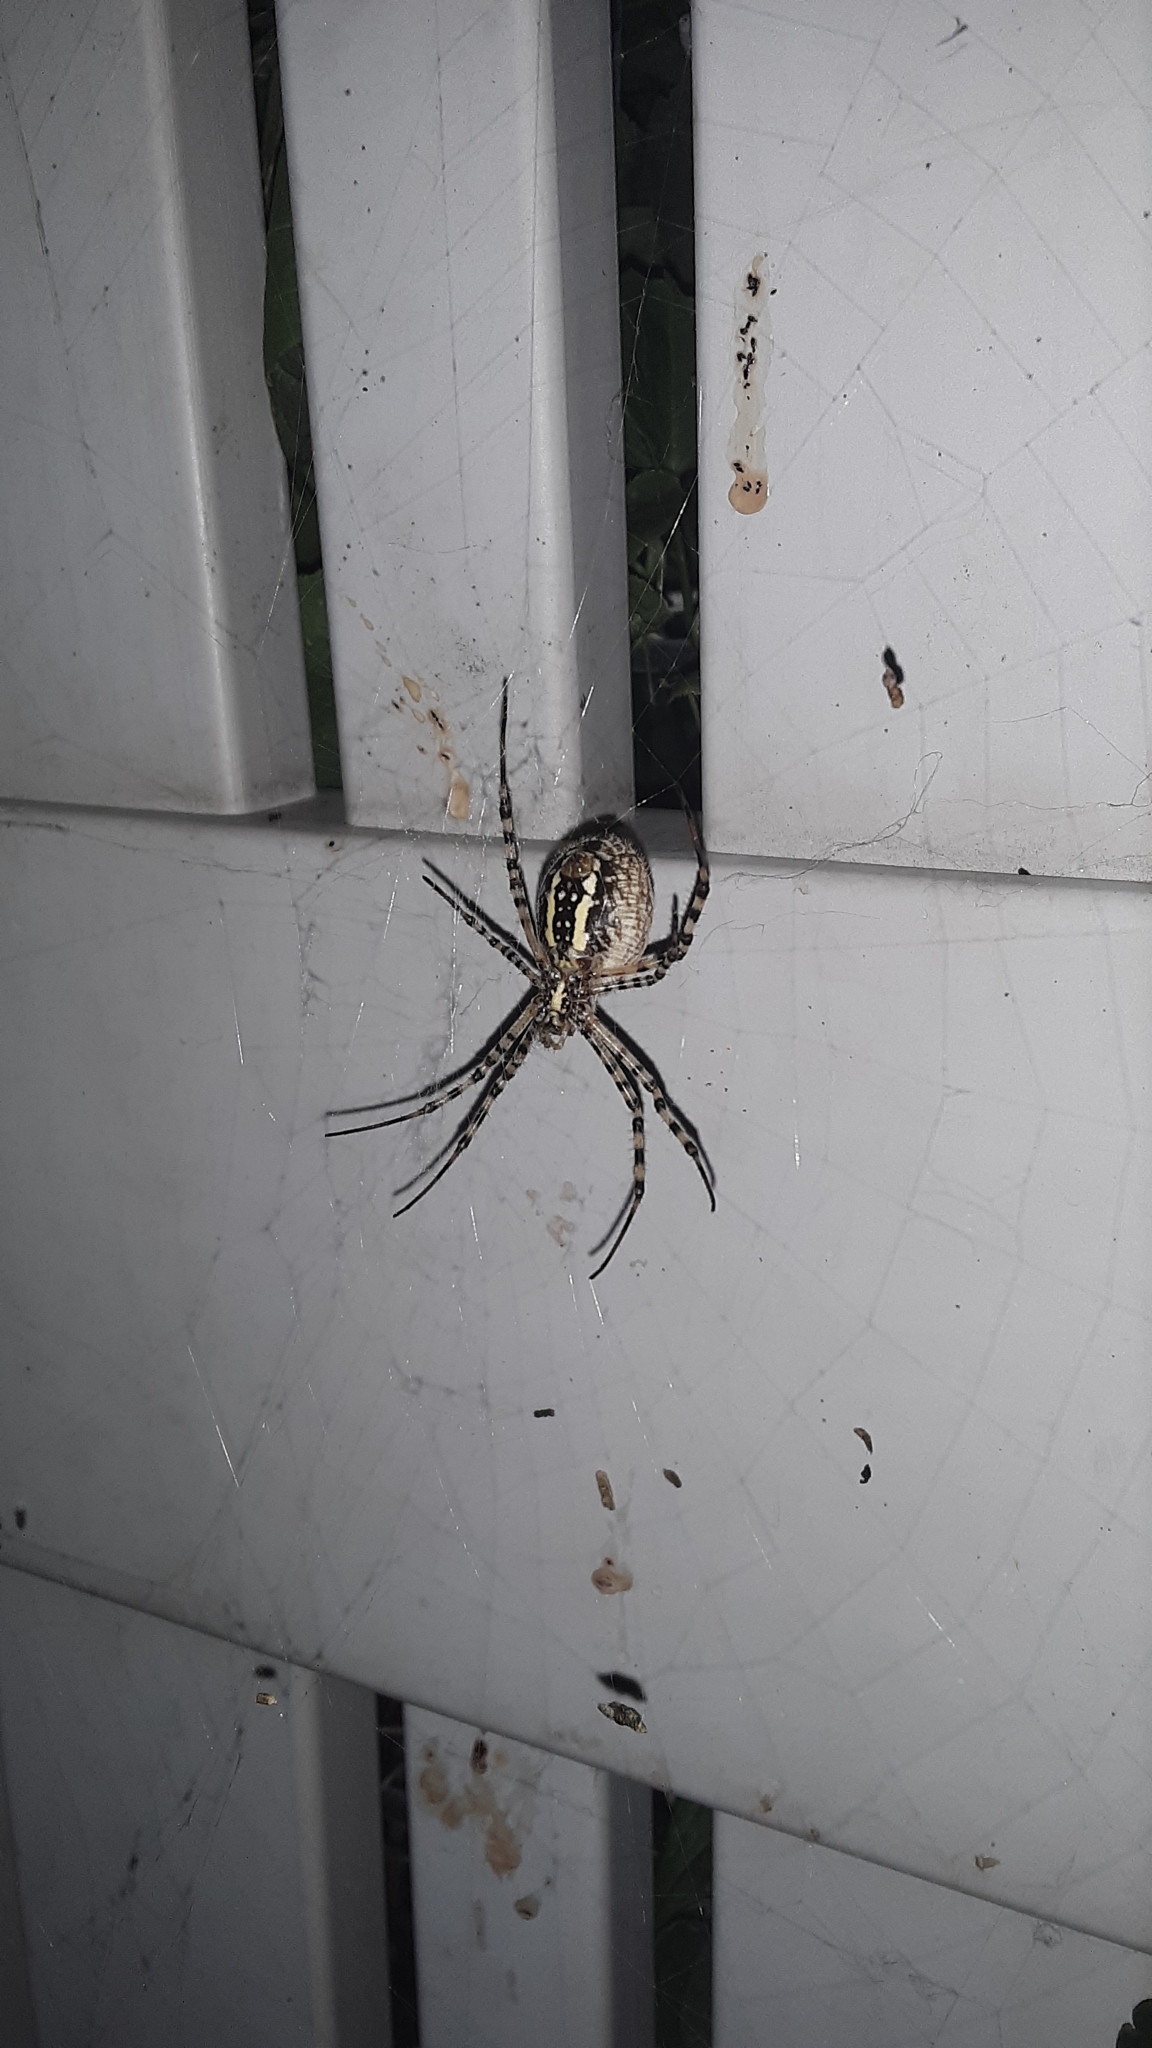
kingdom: Animalia
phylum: Arthropoda
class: Arachnida
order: Araneae
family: Araneidae
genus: Argiope
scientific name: Argiope trifasciata
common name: Banded garden spider
